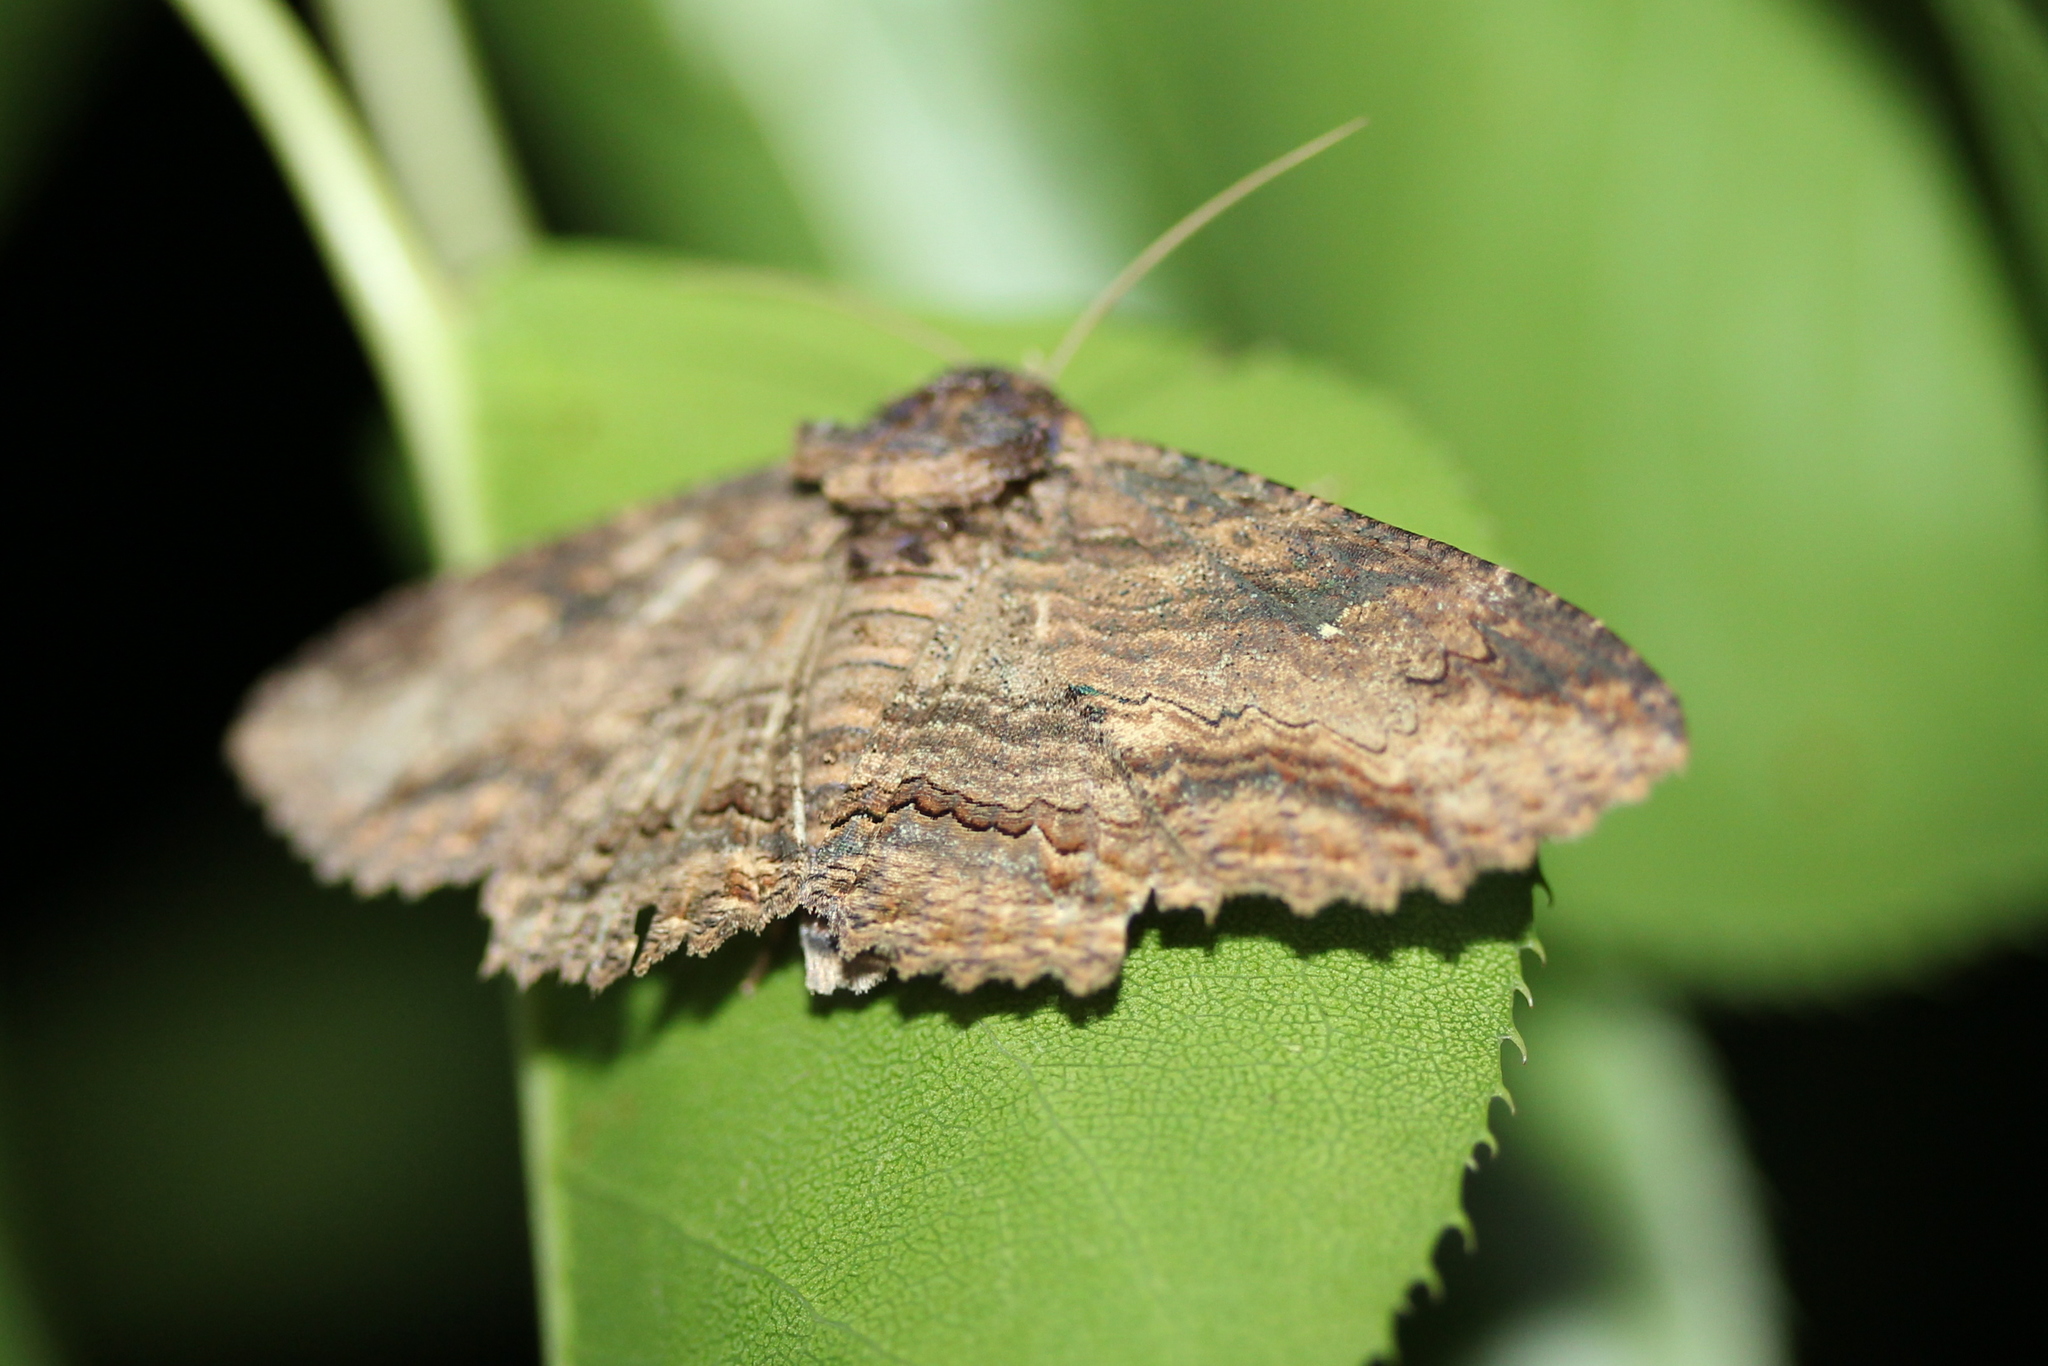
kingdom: Animalia
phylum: Arthropoda
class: Insecta
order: Lepidoptera
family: Erebidae
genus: Zale
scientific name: Zale lunata
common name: Lunate zale moth
